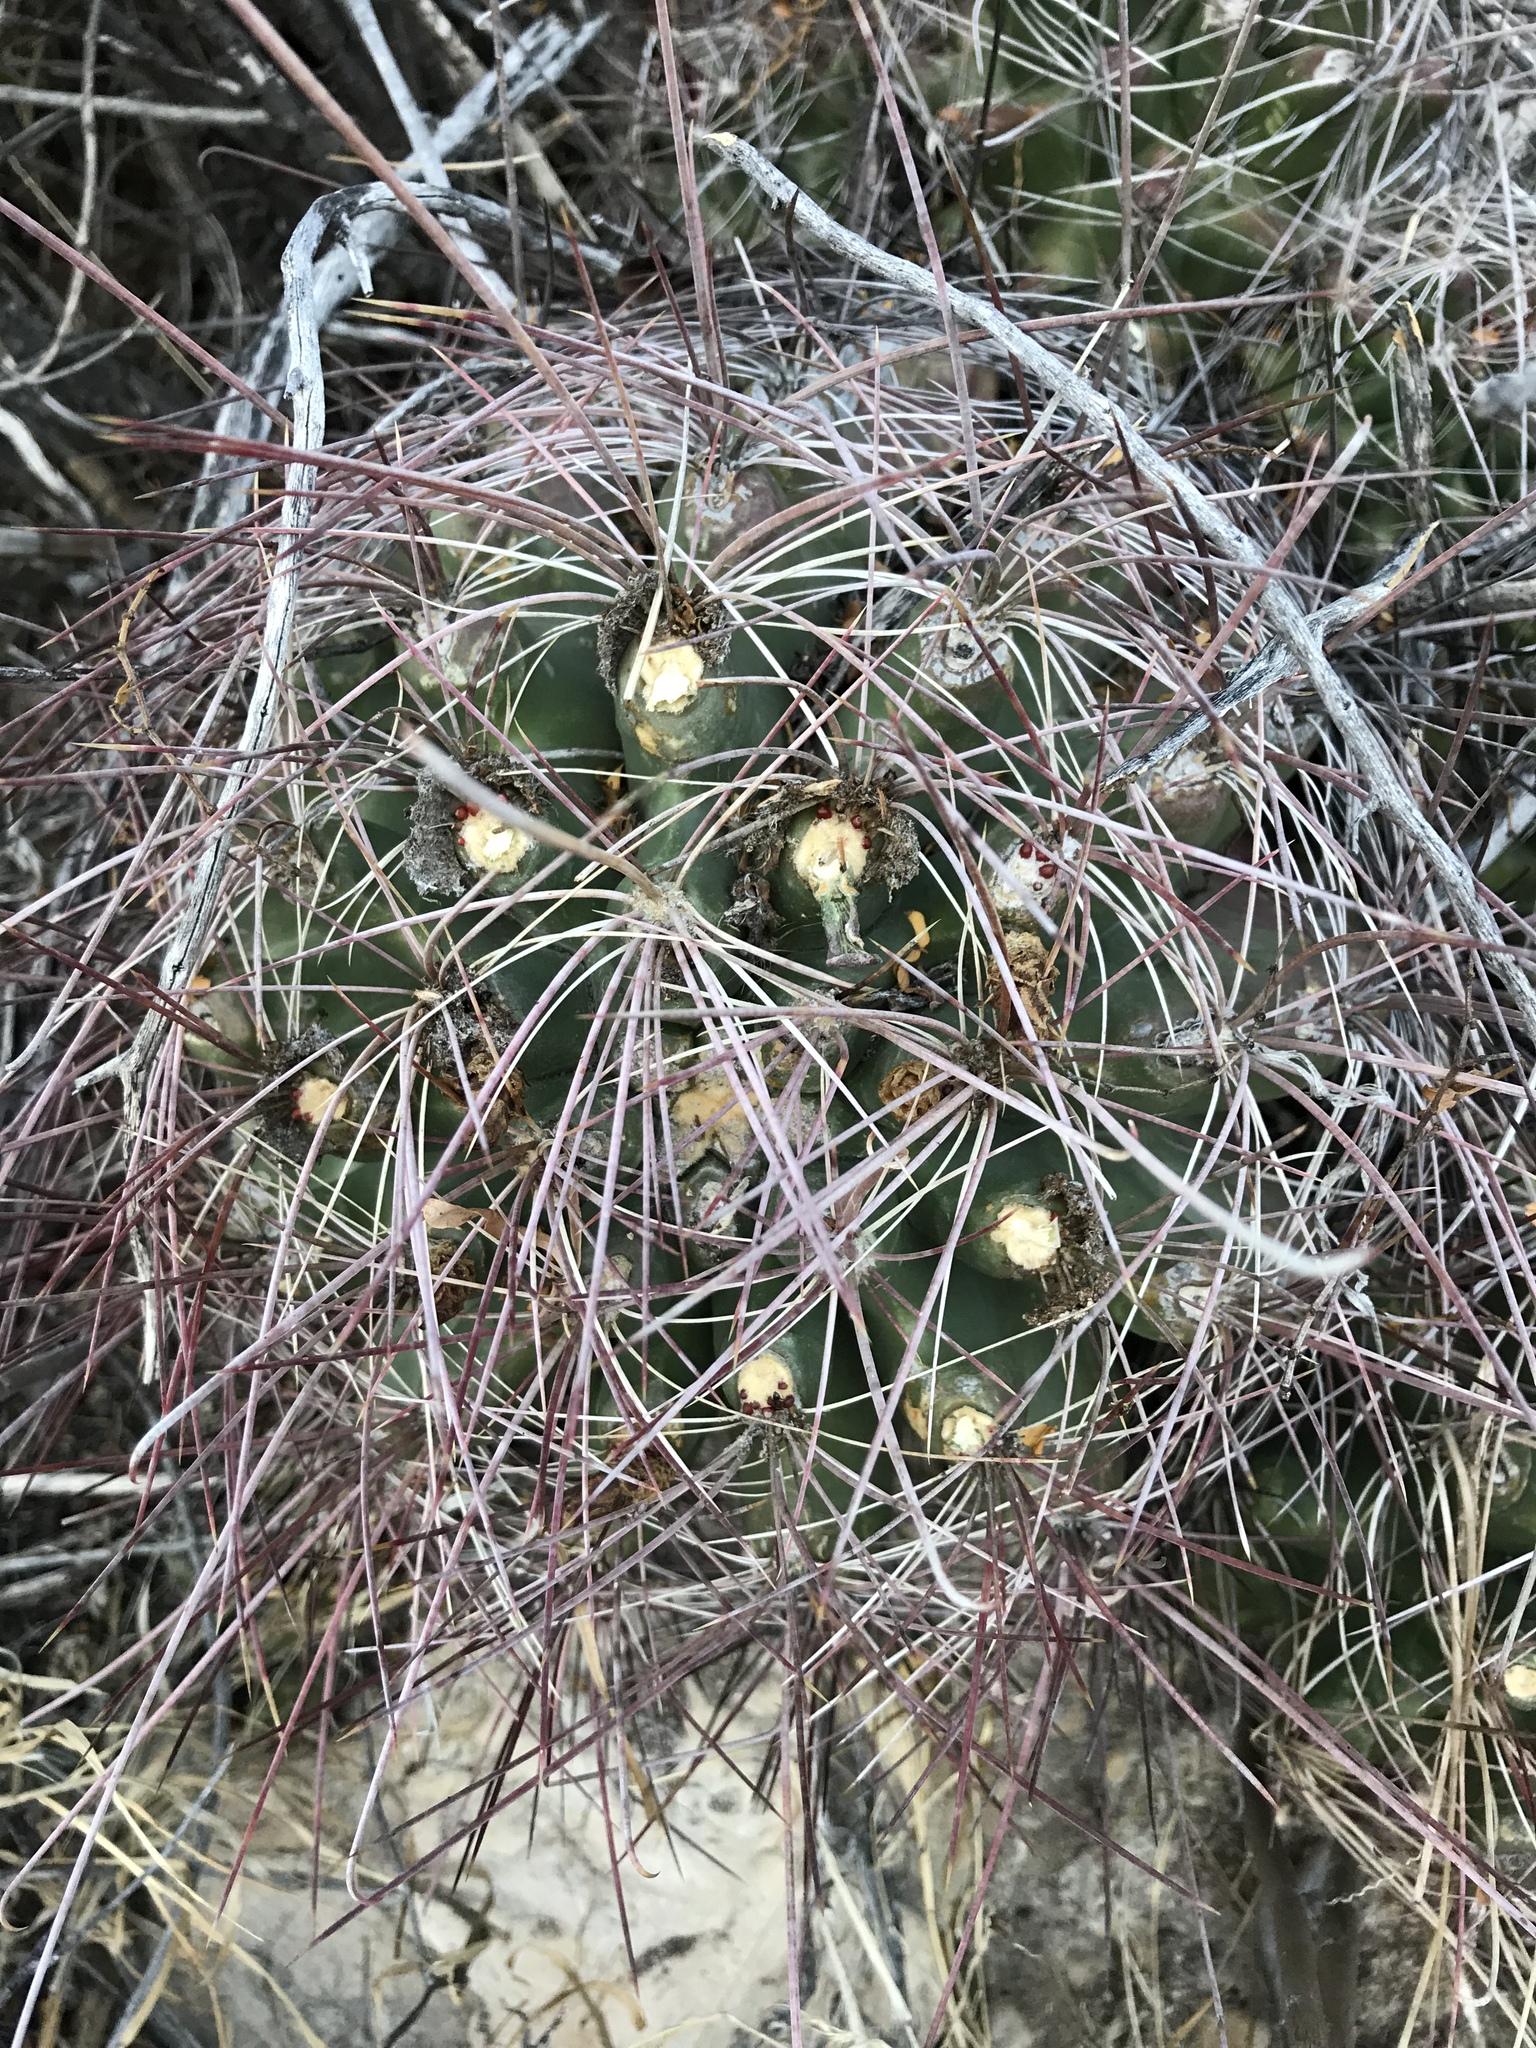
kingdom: Plantae
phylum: Tracheophyta
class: Magnoliopsida
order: Caryophyllales
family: Cactaceae
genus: Bisnaga
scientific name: Bisnaga hamatacantha
